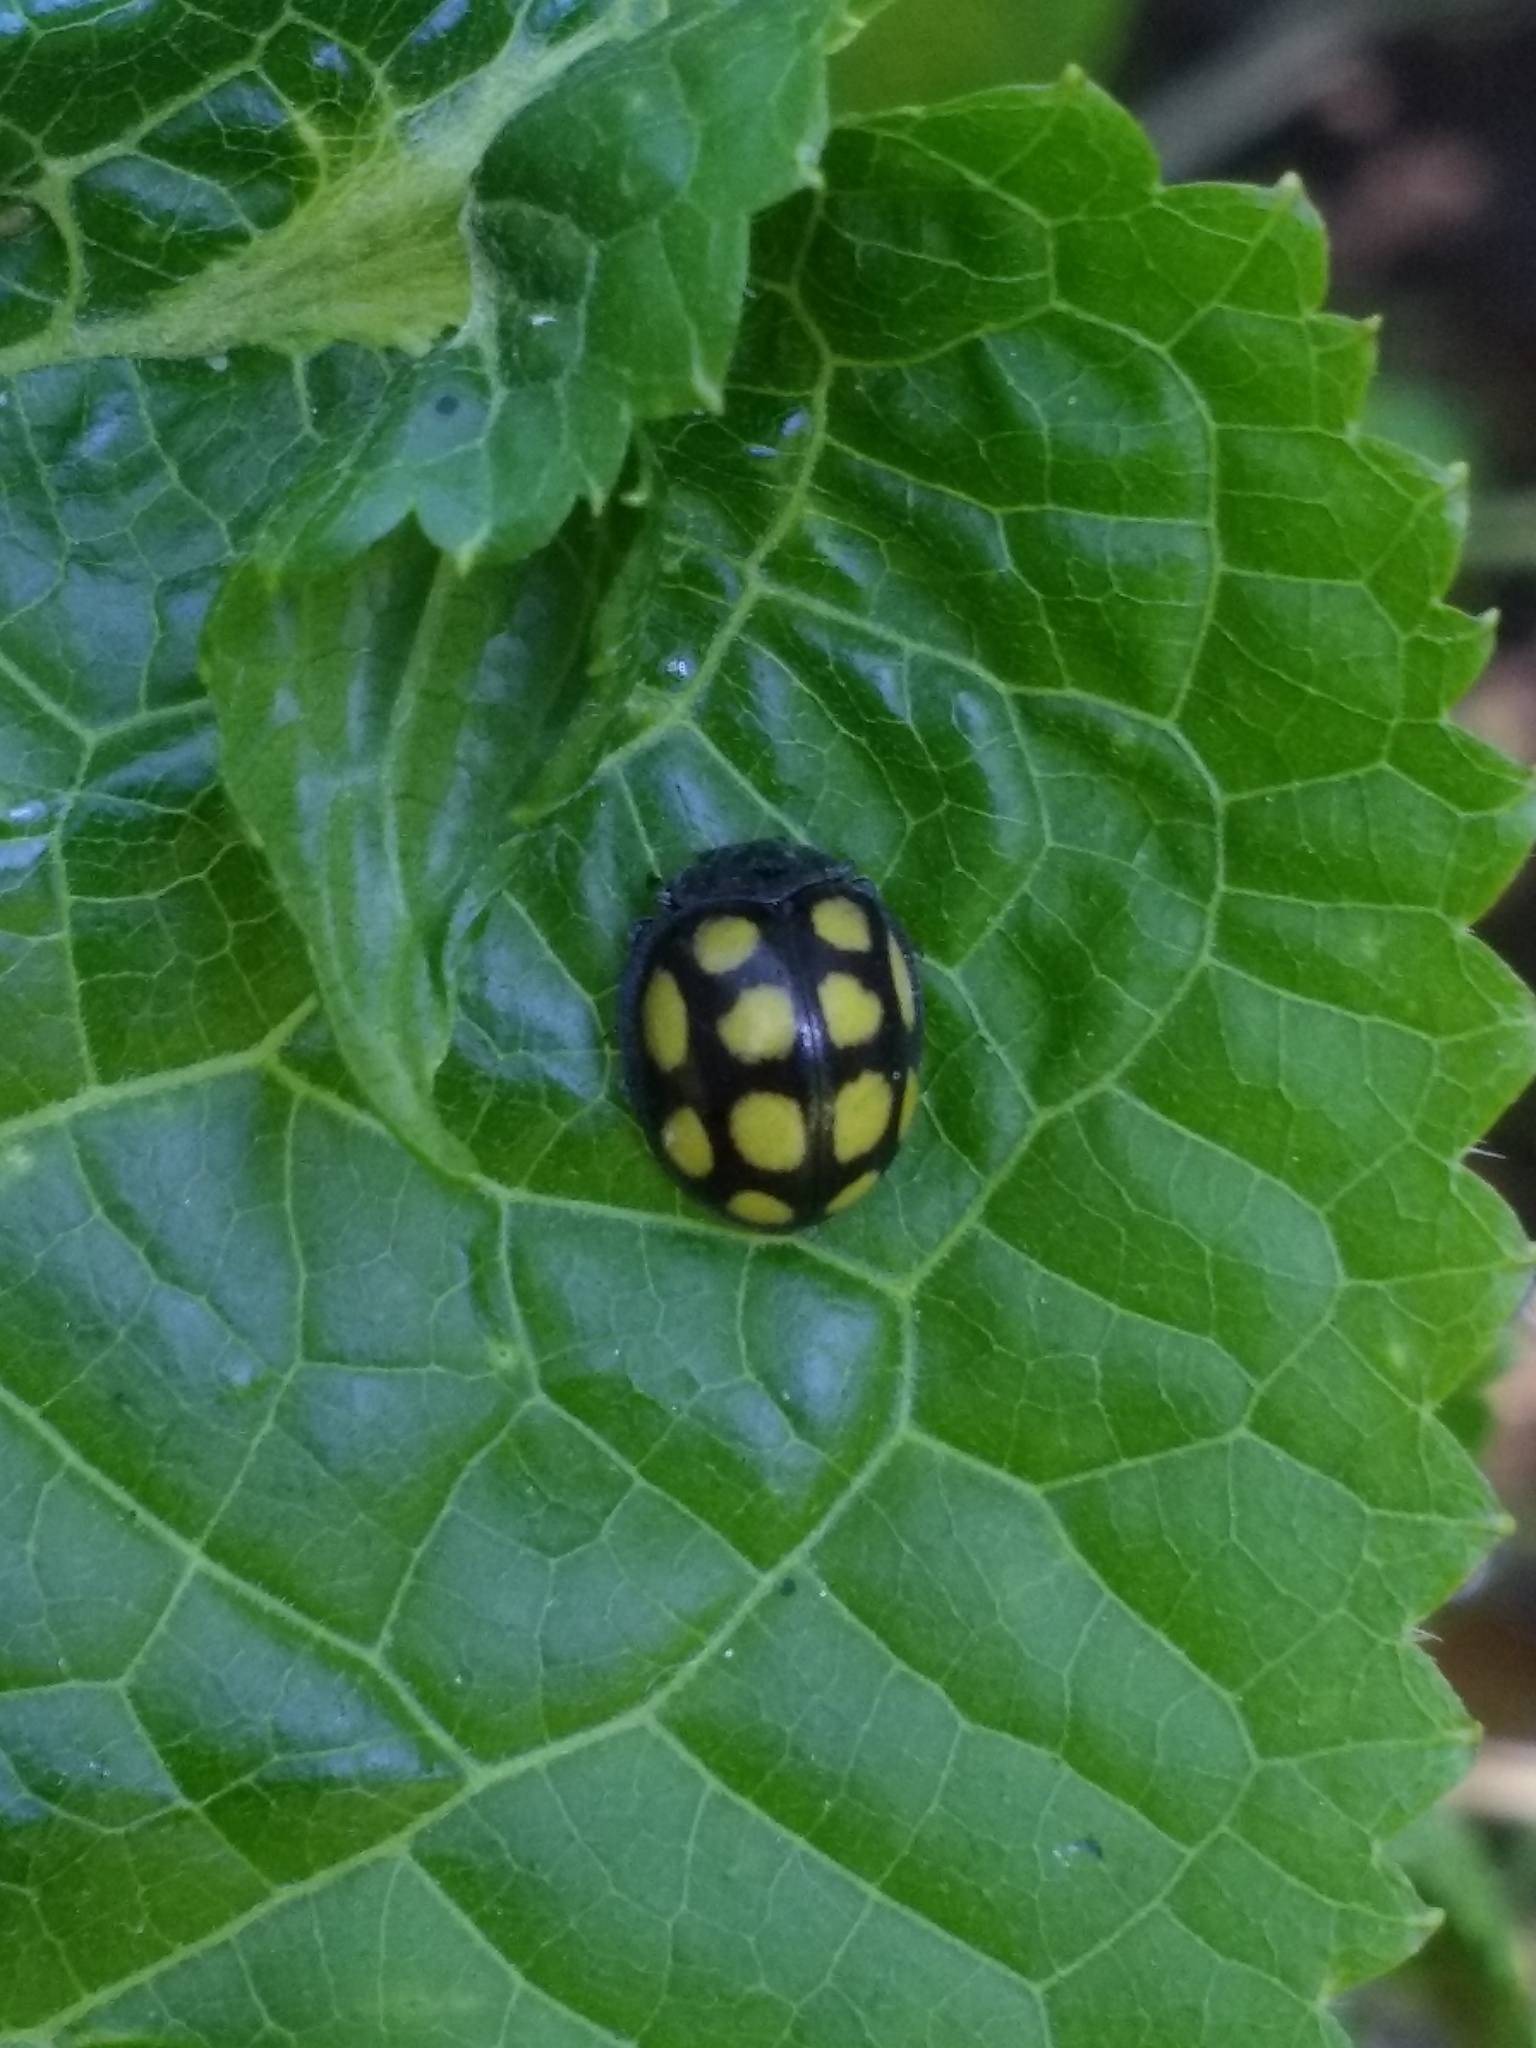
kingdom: Animalia
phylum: Arthropoda
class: Insecta
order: Coleoptera
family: Coccinellidae
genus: Epilachna
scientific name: Epilachna
